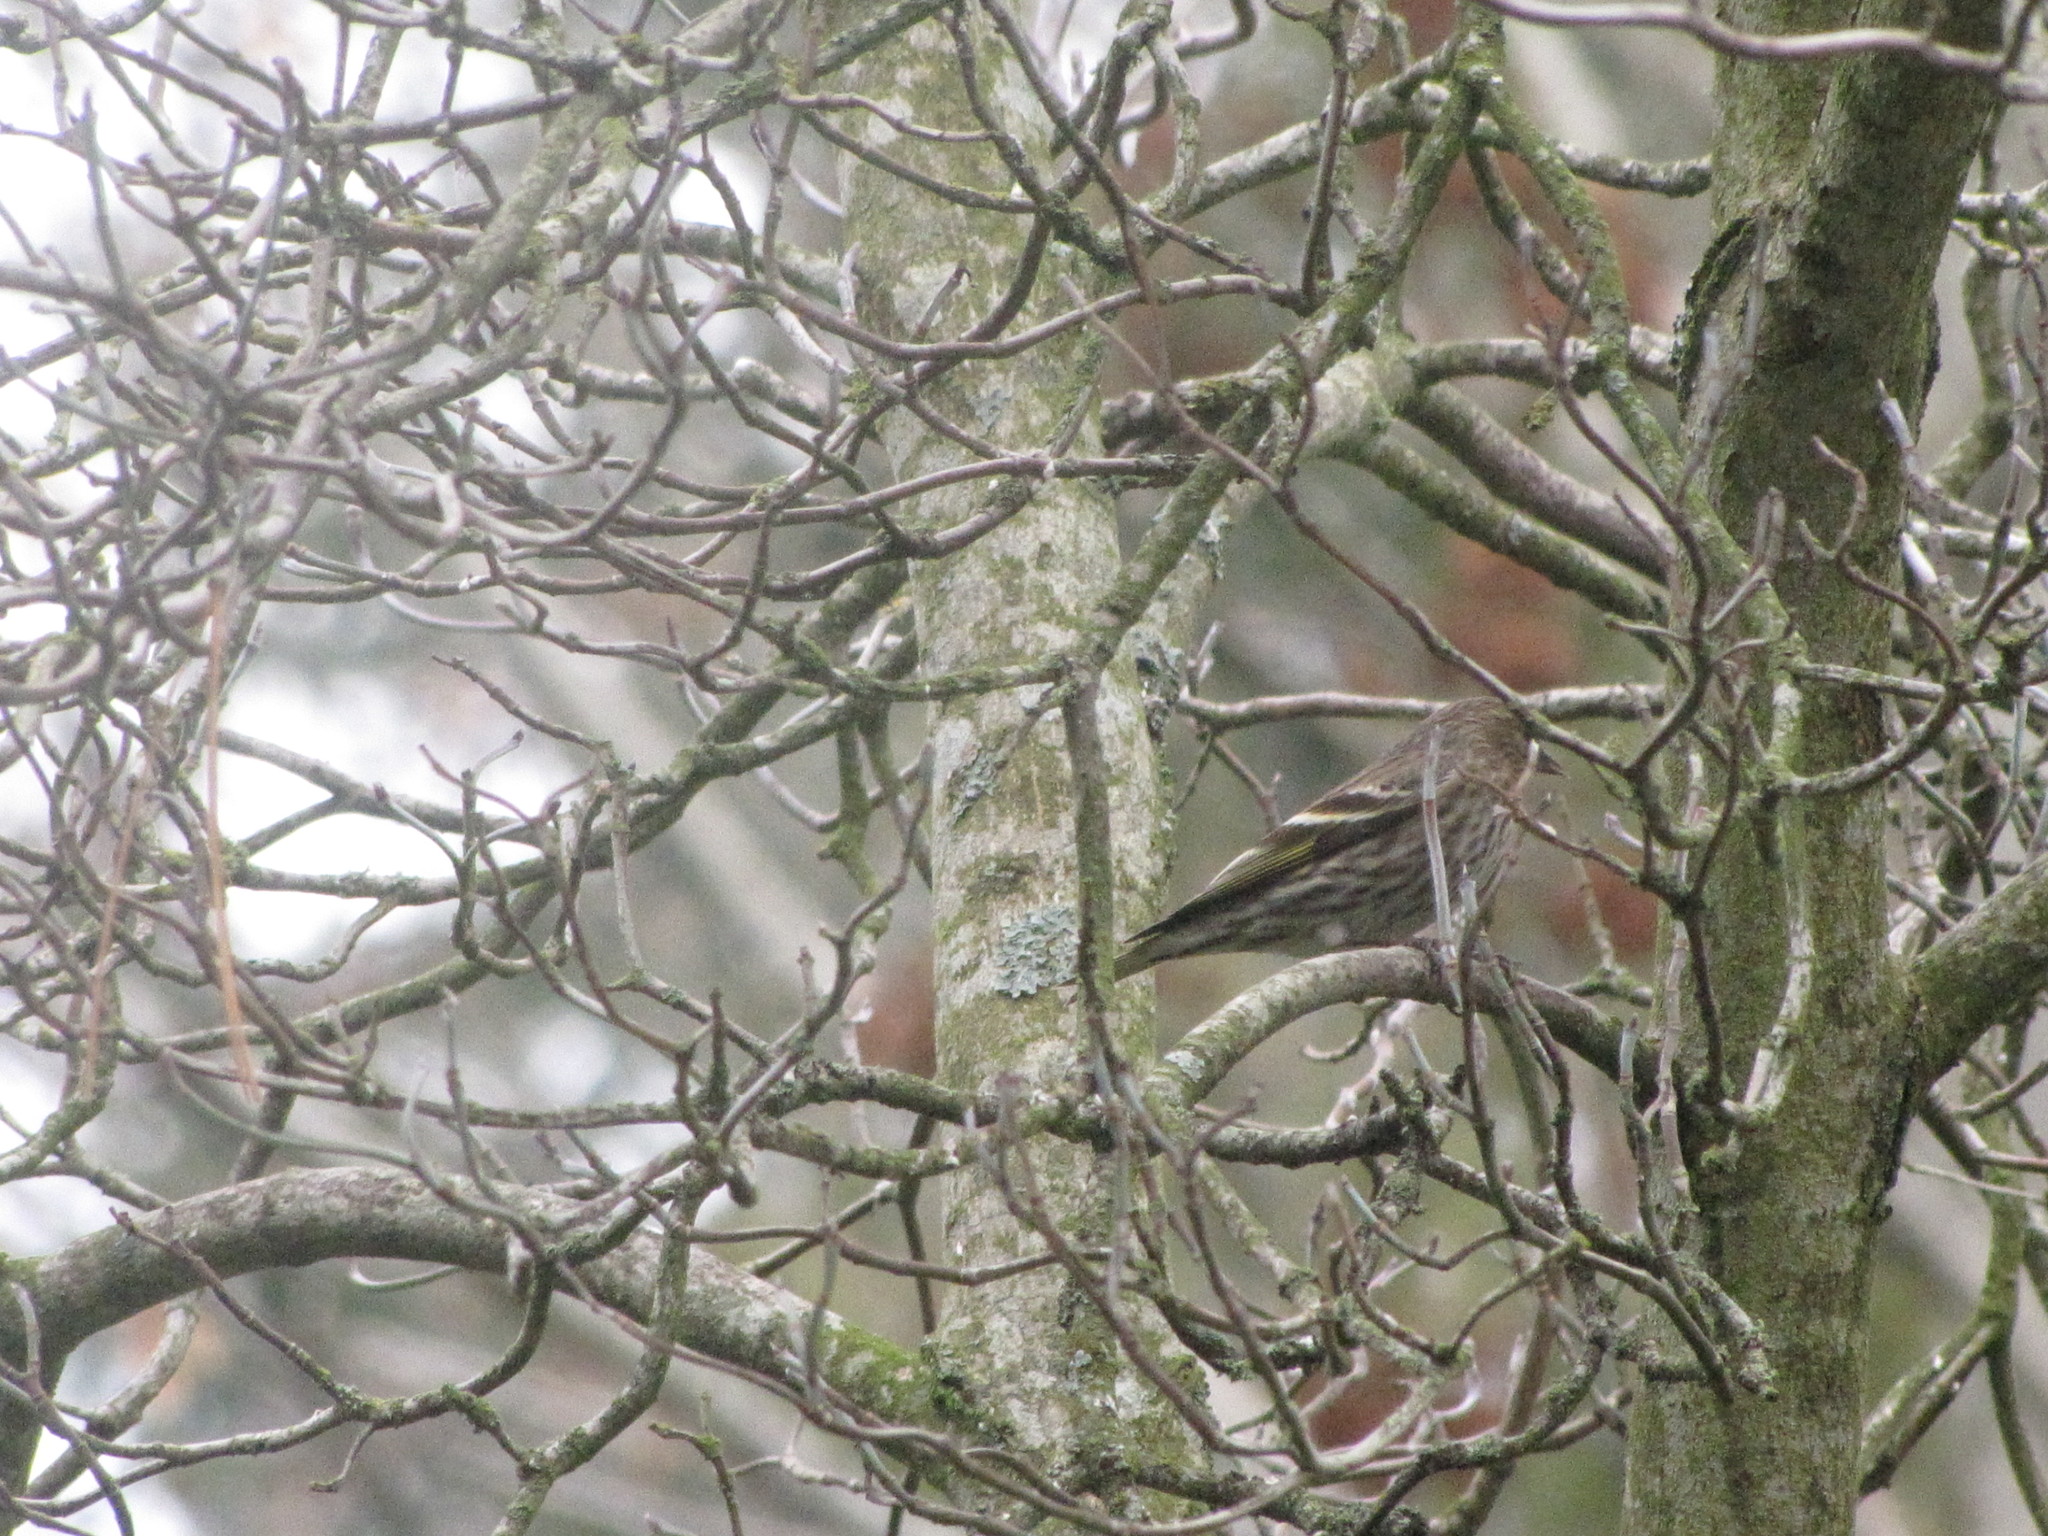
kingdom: Animalia
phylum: Chordata
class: Aves
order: Passeriformes
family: Fringillidae
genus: Spinus
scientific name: Spinus pinus
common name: Pine siskin
